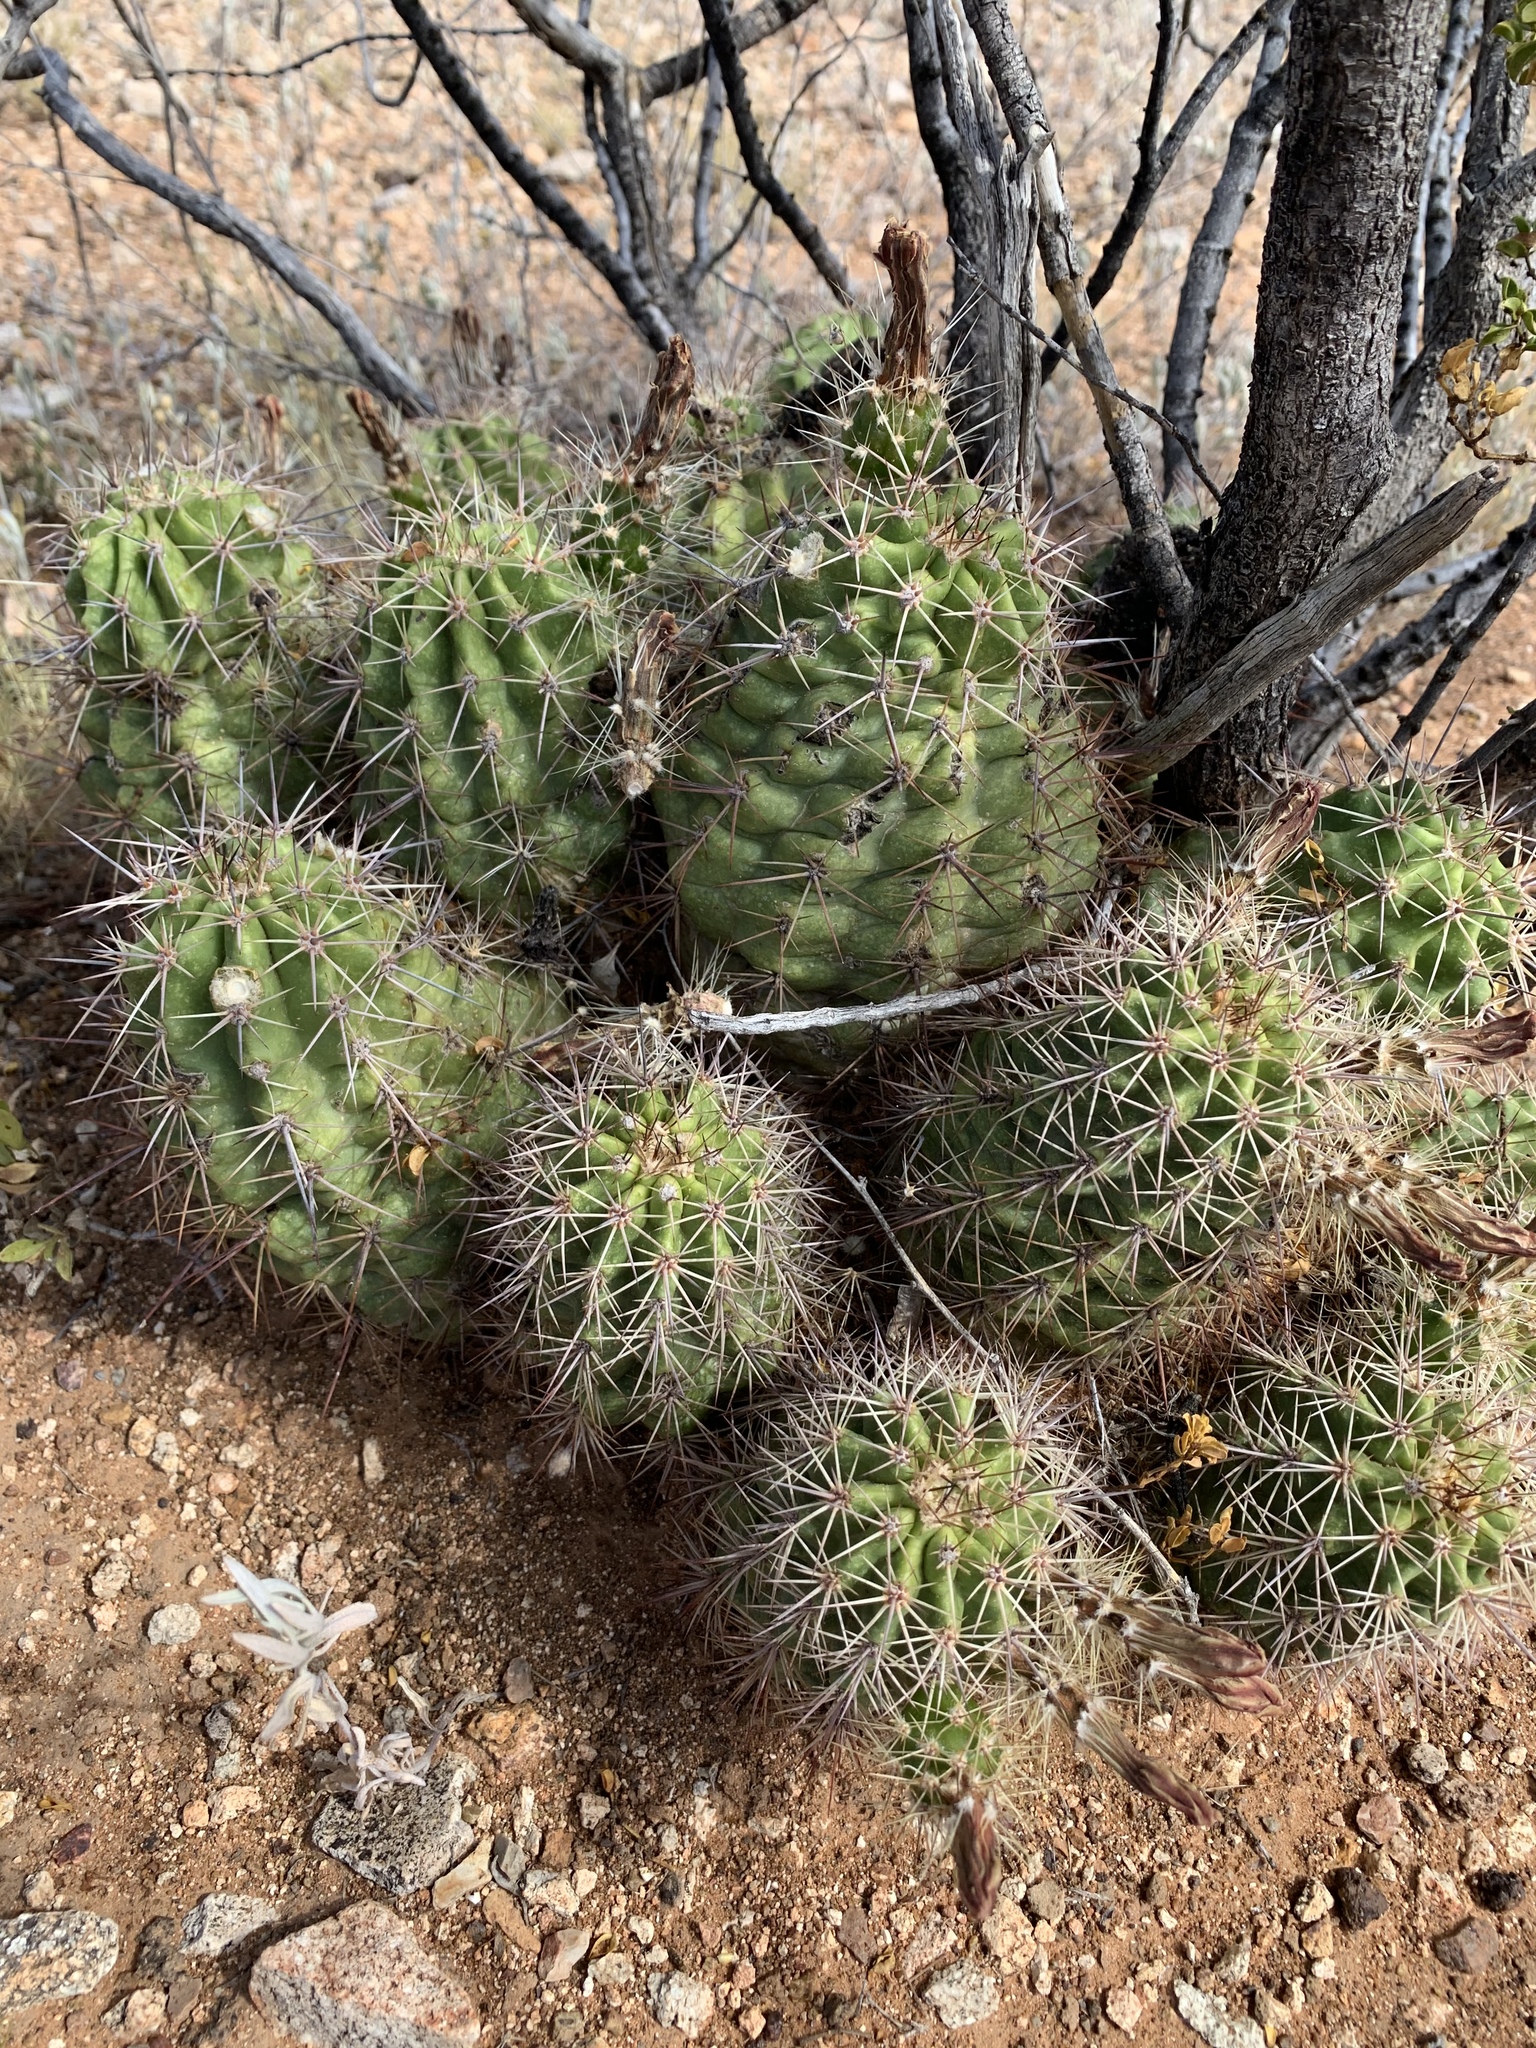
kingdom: Plantae
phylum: Tracheophyta
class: Magnoliopsida
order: Caryophyllales
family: Cactaceae
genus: Echinocereus
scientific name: Echinocereus coccineus
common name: Scarlet hedgehog cactus
